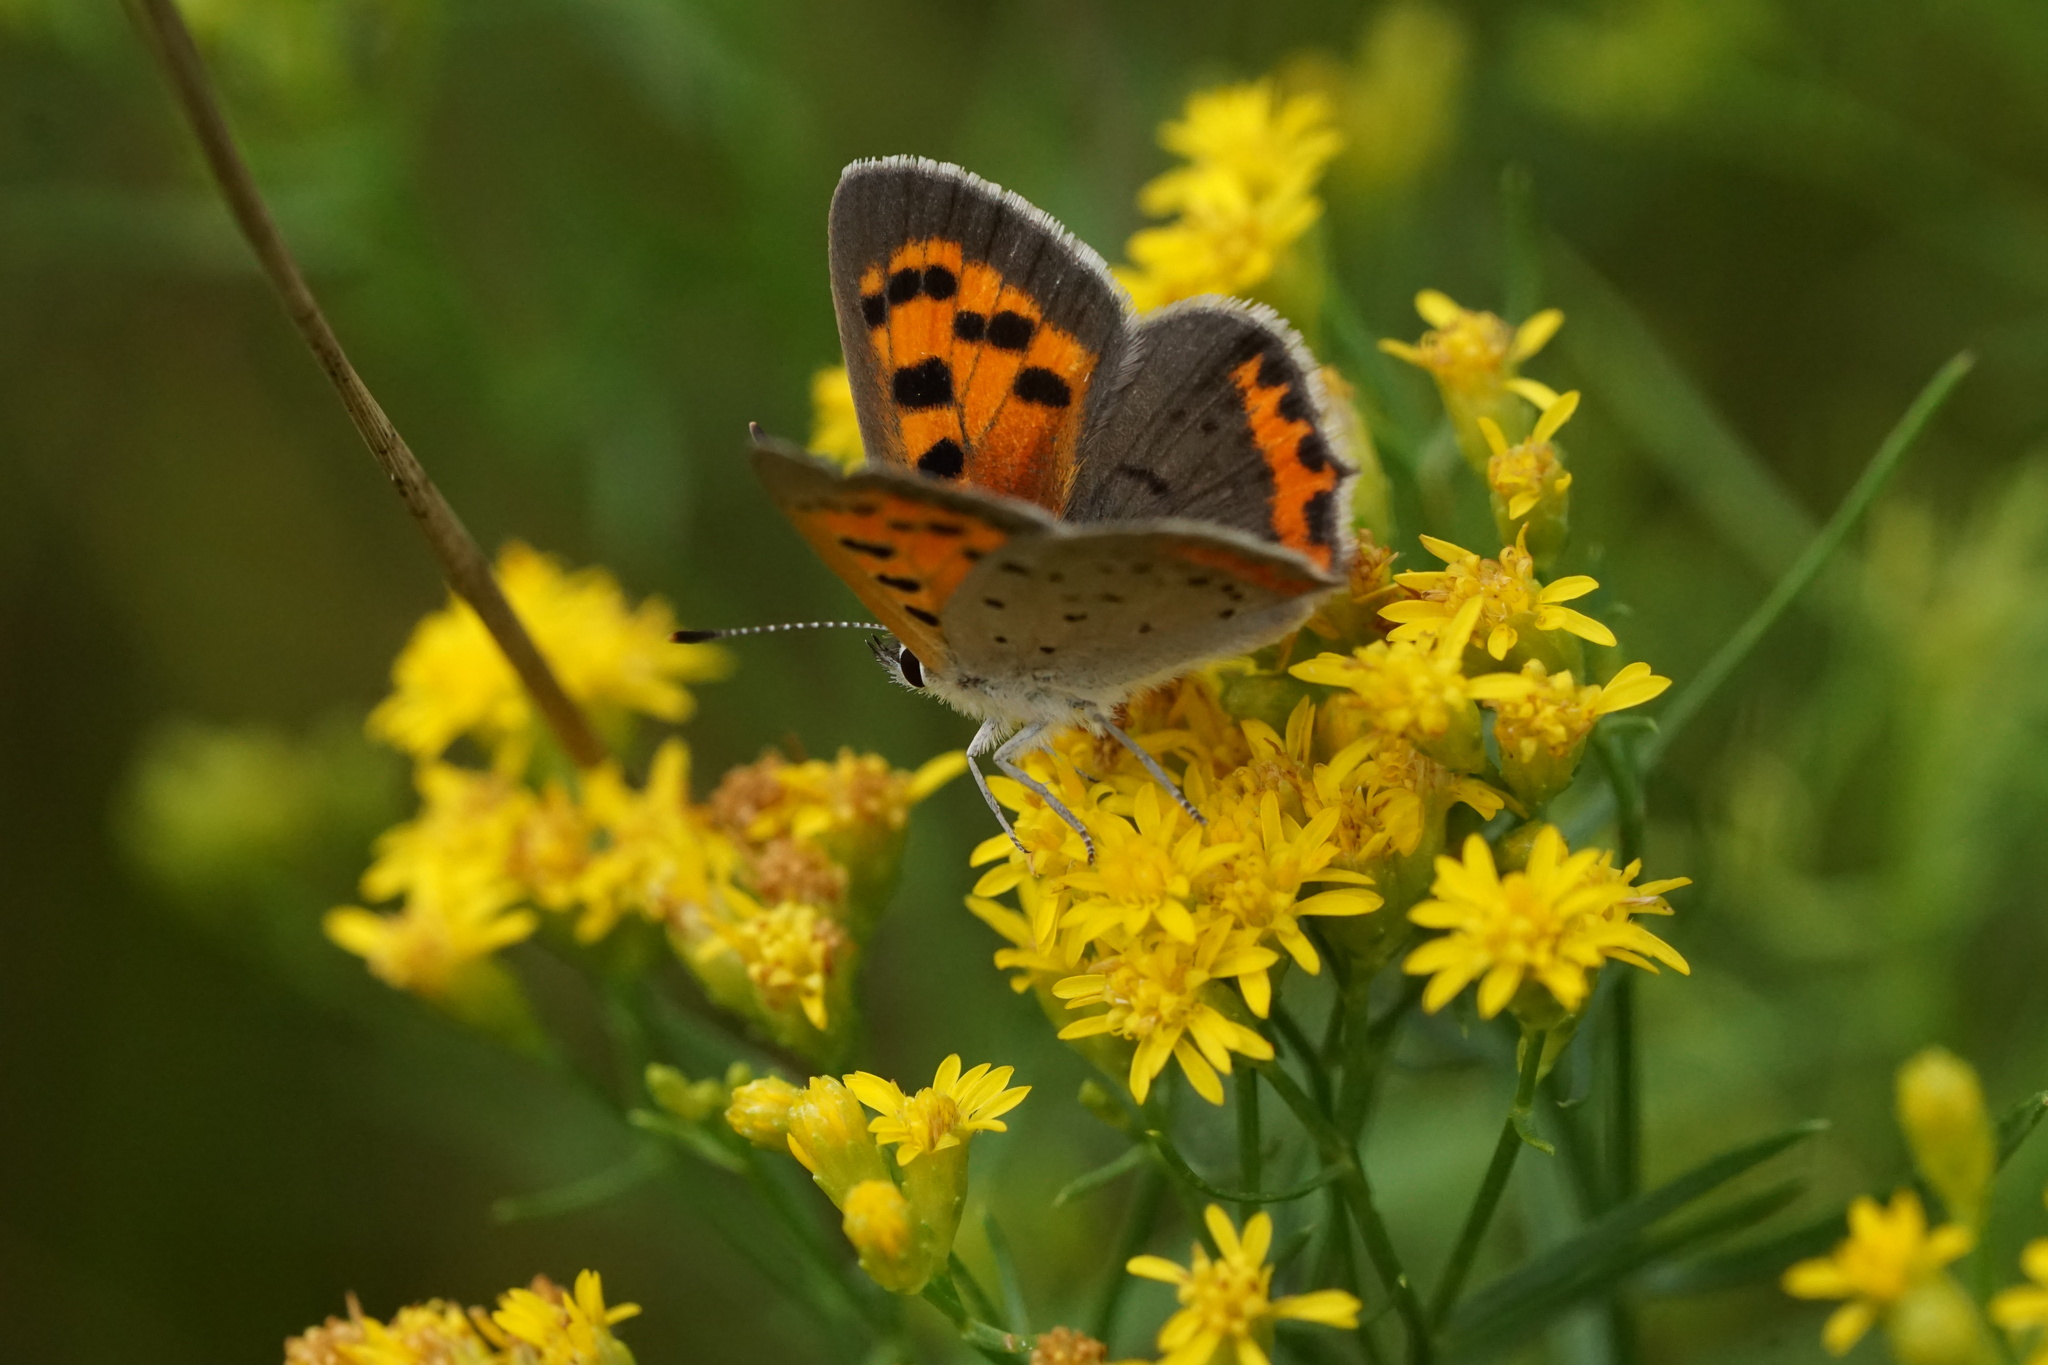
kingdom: Animalia
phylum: Arthropoda
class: Insecta
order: Lepidoptera
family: Lycaenidae
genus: Lycaena
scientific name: Lycaena hypophlaeas
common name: American copper
